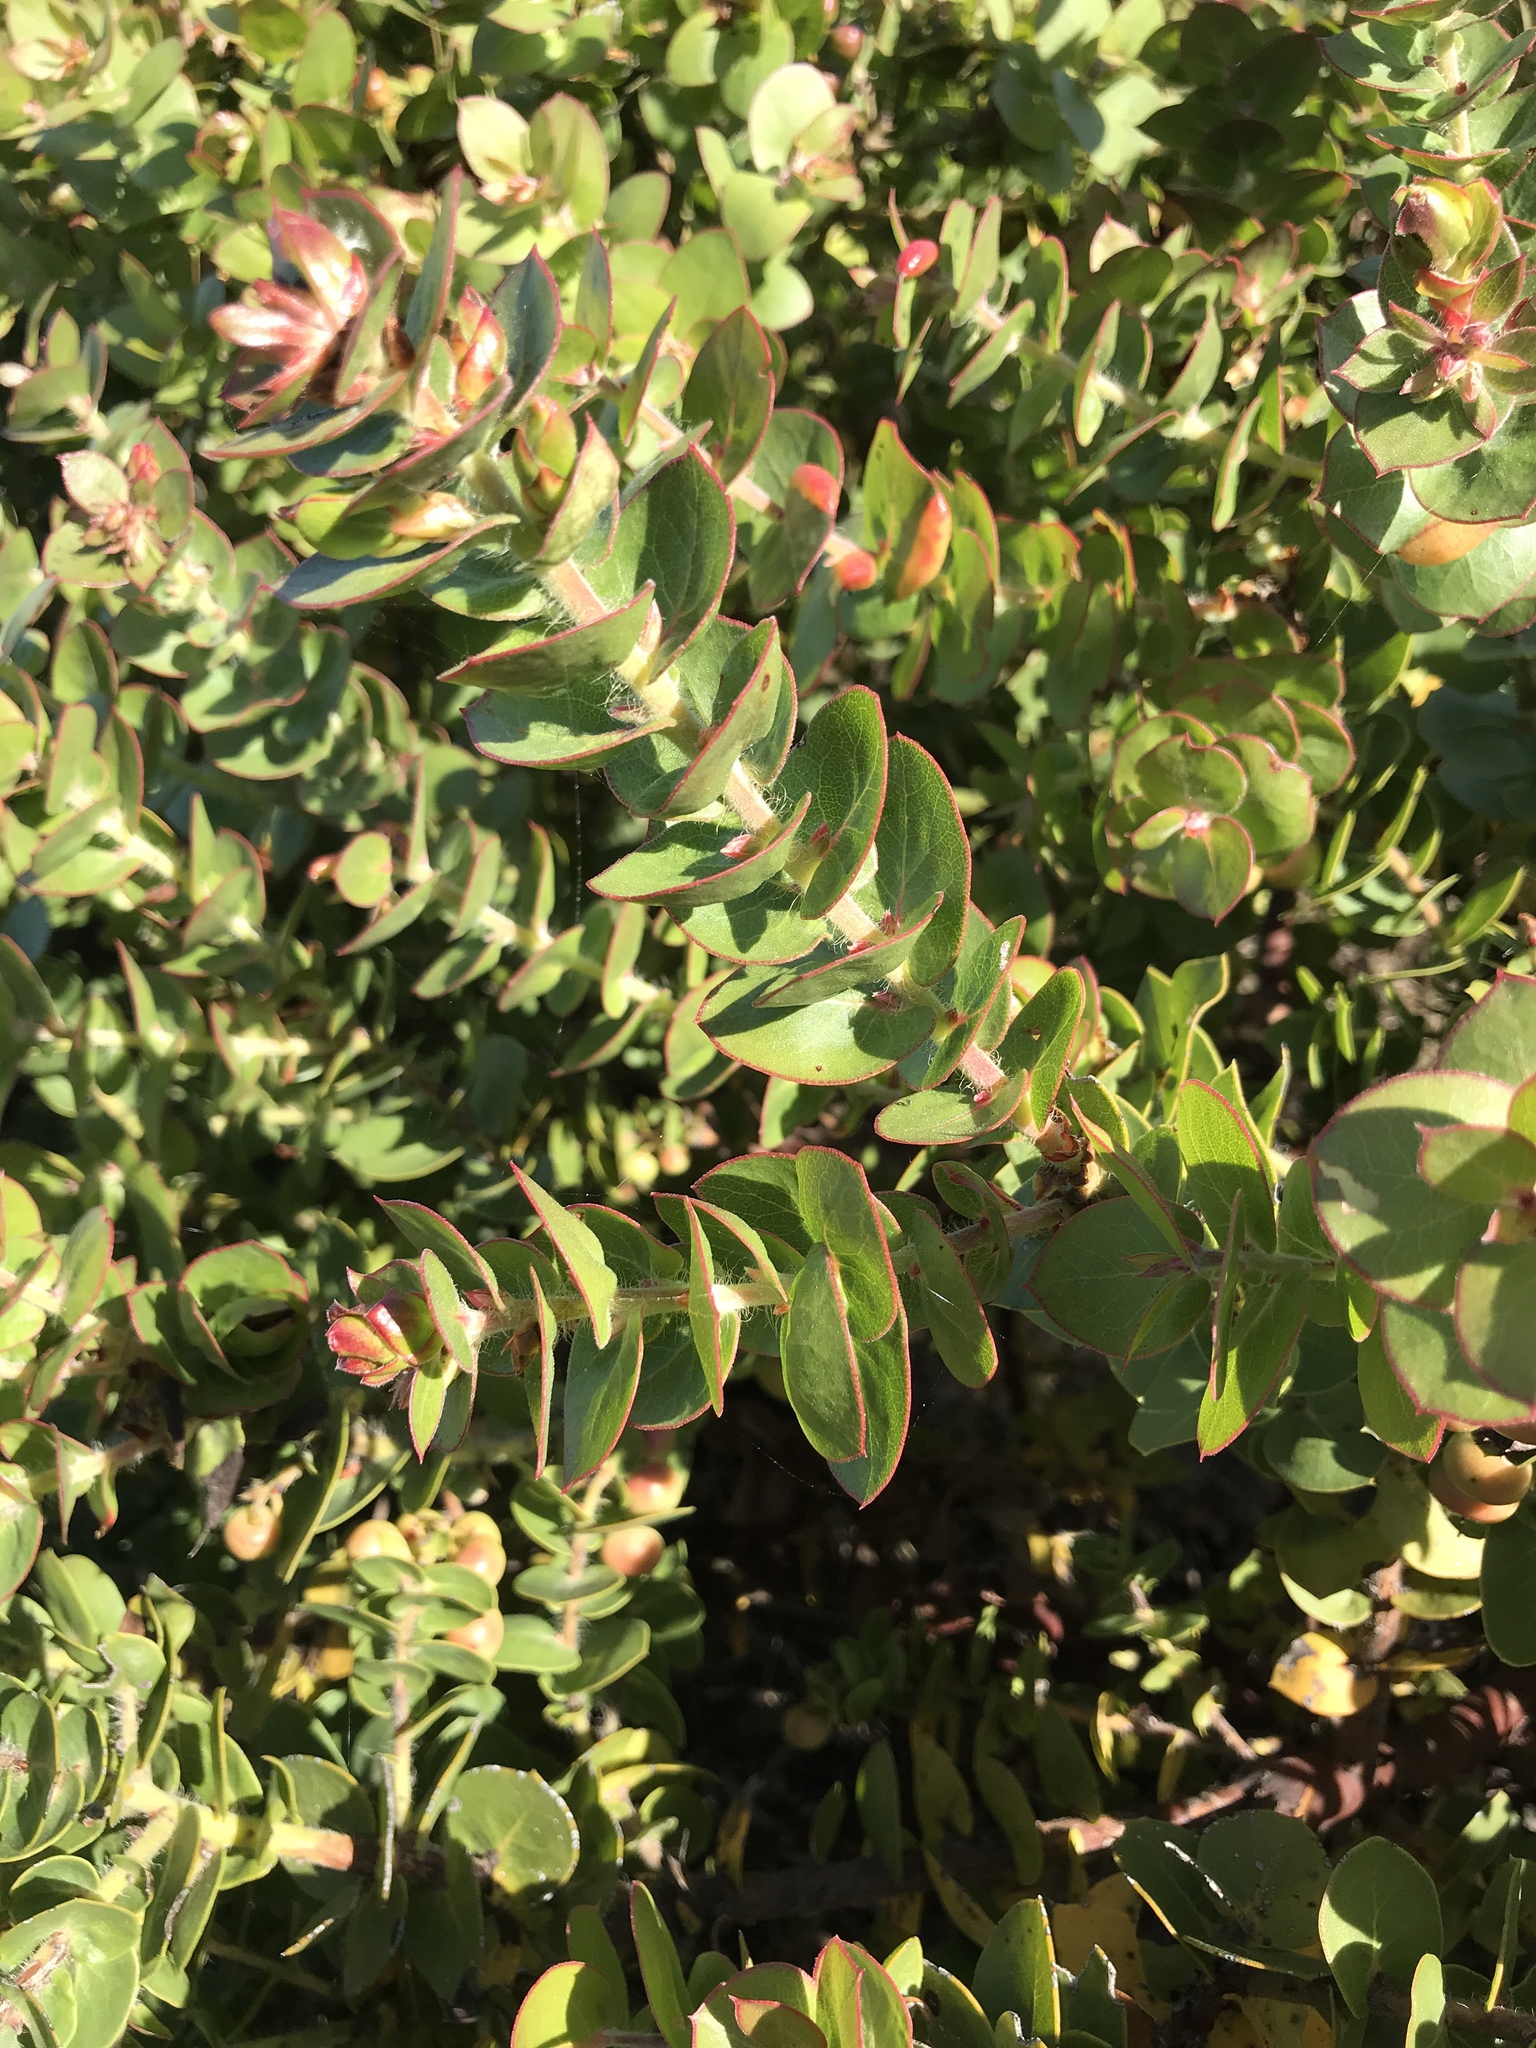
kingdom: Plantae
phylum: Tracheophyta
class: Magnoliopsida
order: Ericales
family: Ericaceae
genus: Arctostaphylos
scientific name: Arctostaphylos pechoensis
